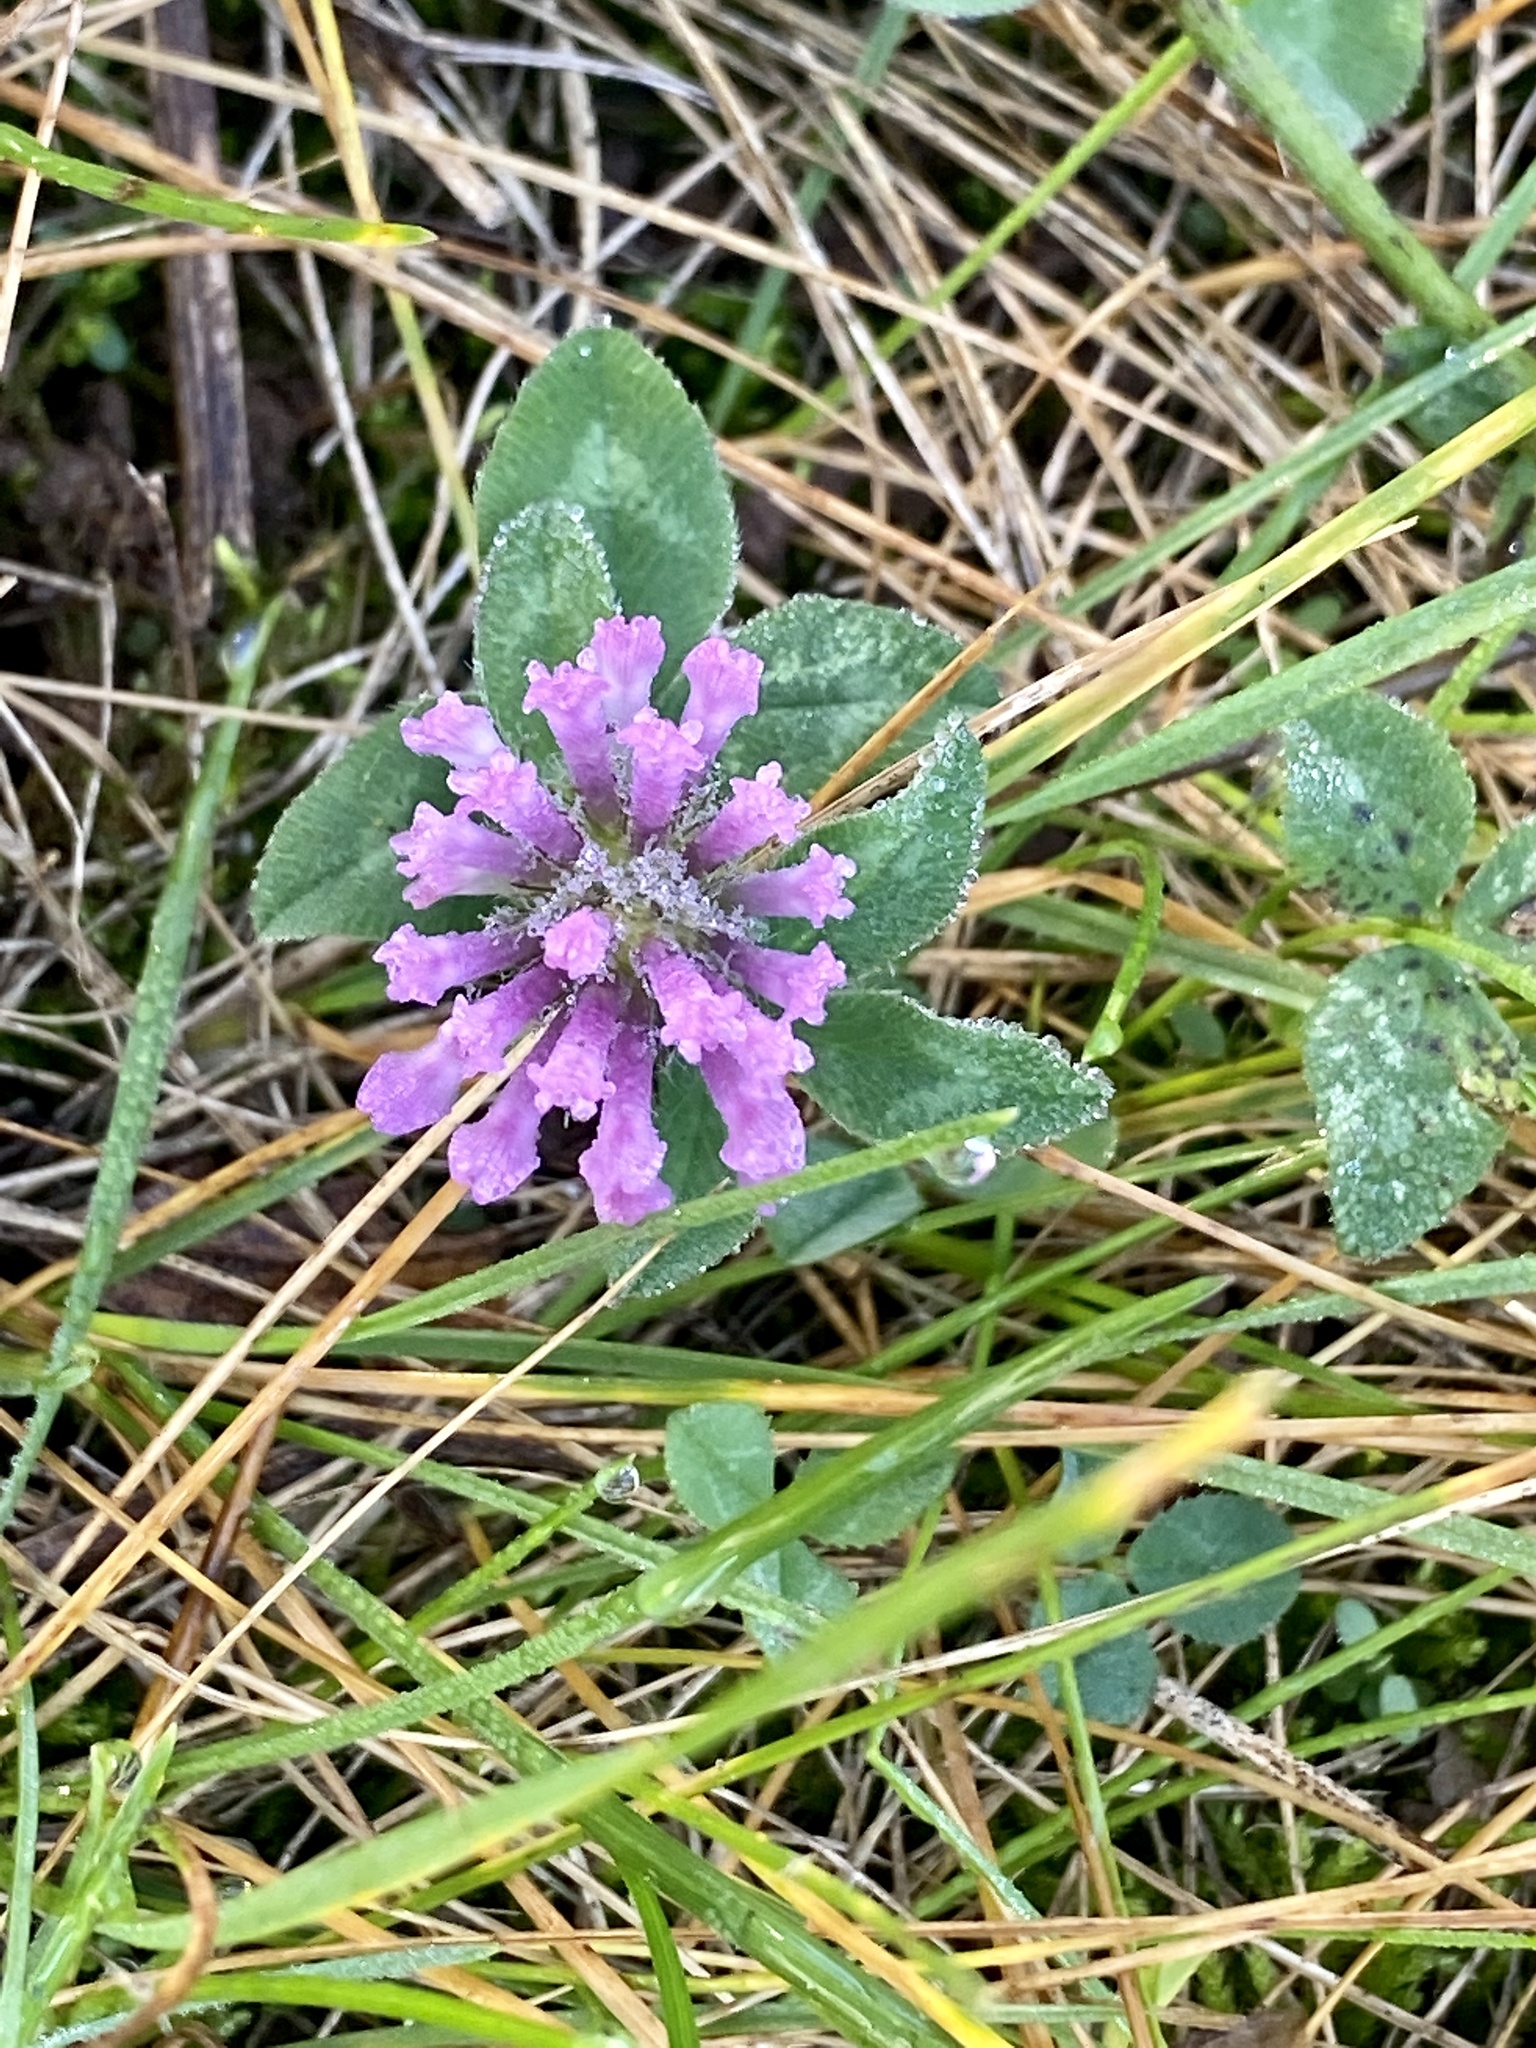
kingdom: Plantae
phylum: Tracheophyta
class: Magnoliopsida
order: Fabales
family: Fabaceae
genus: Trifolium
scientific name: Trifolium pratense
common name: Red clover
